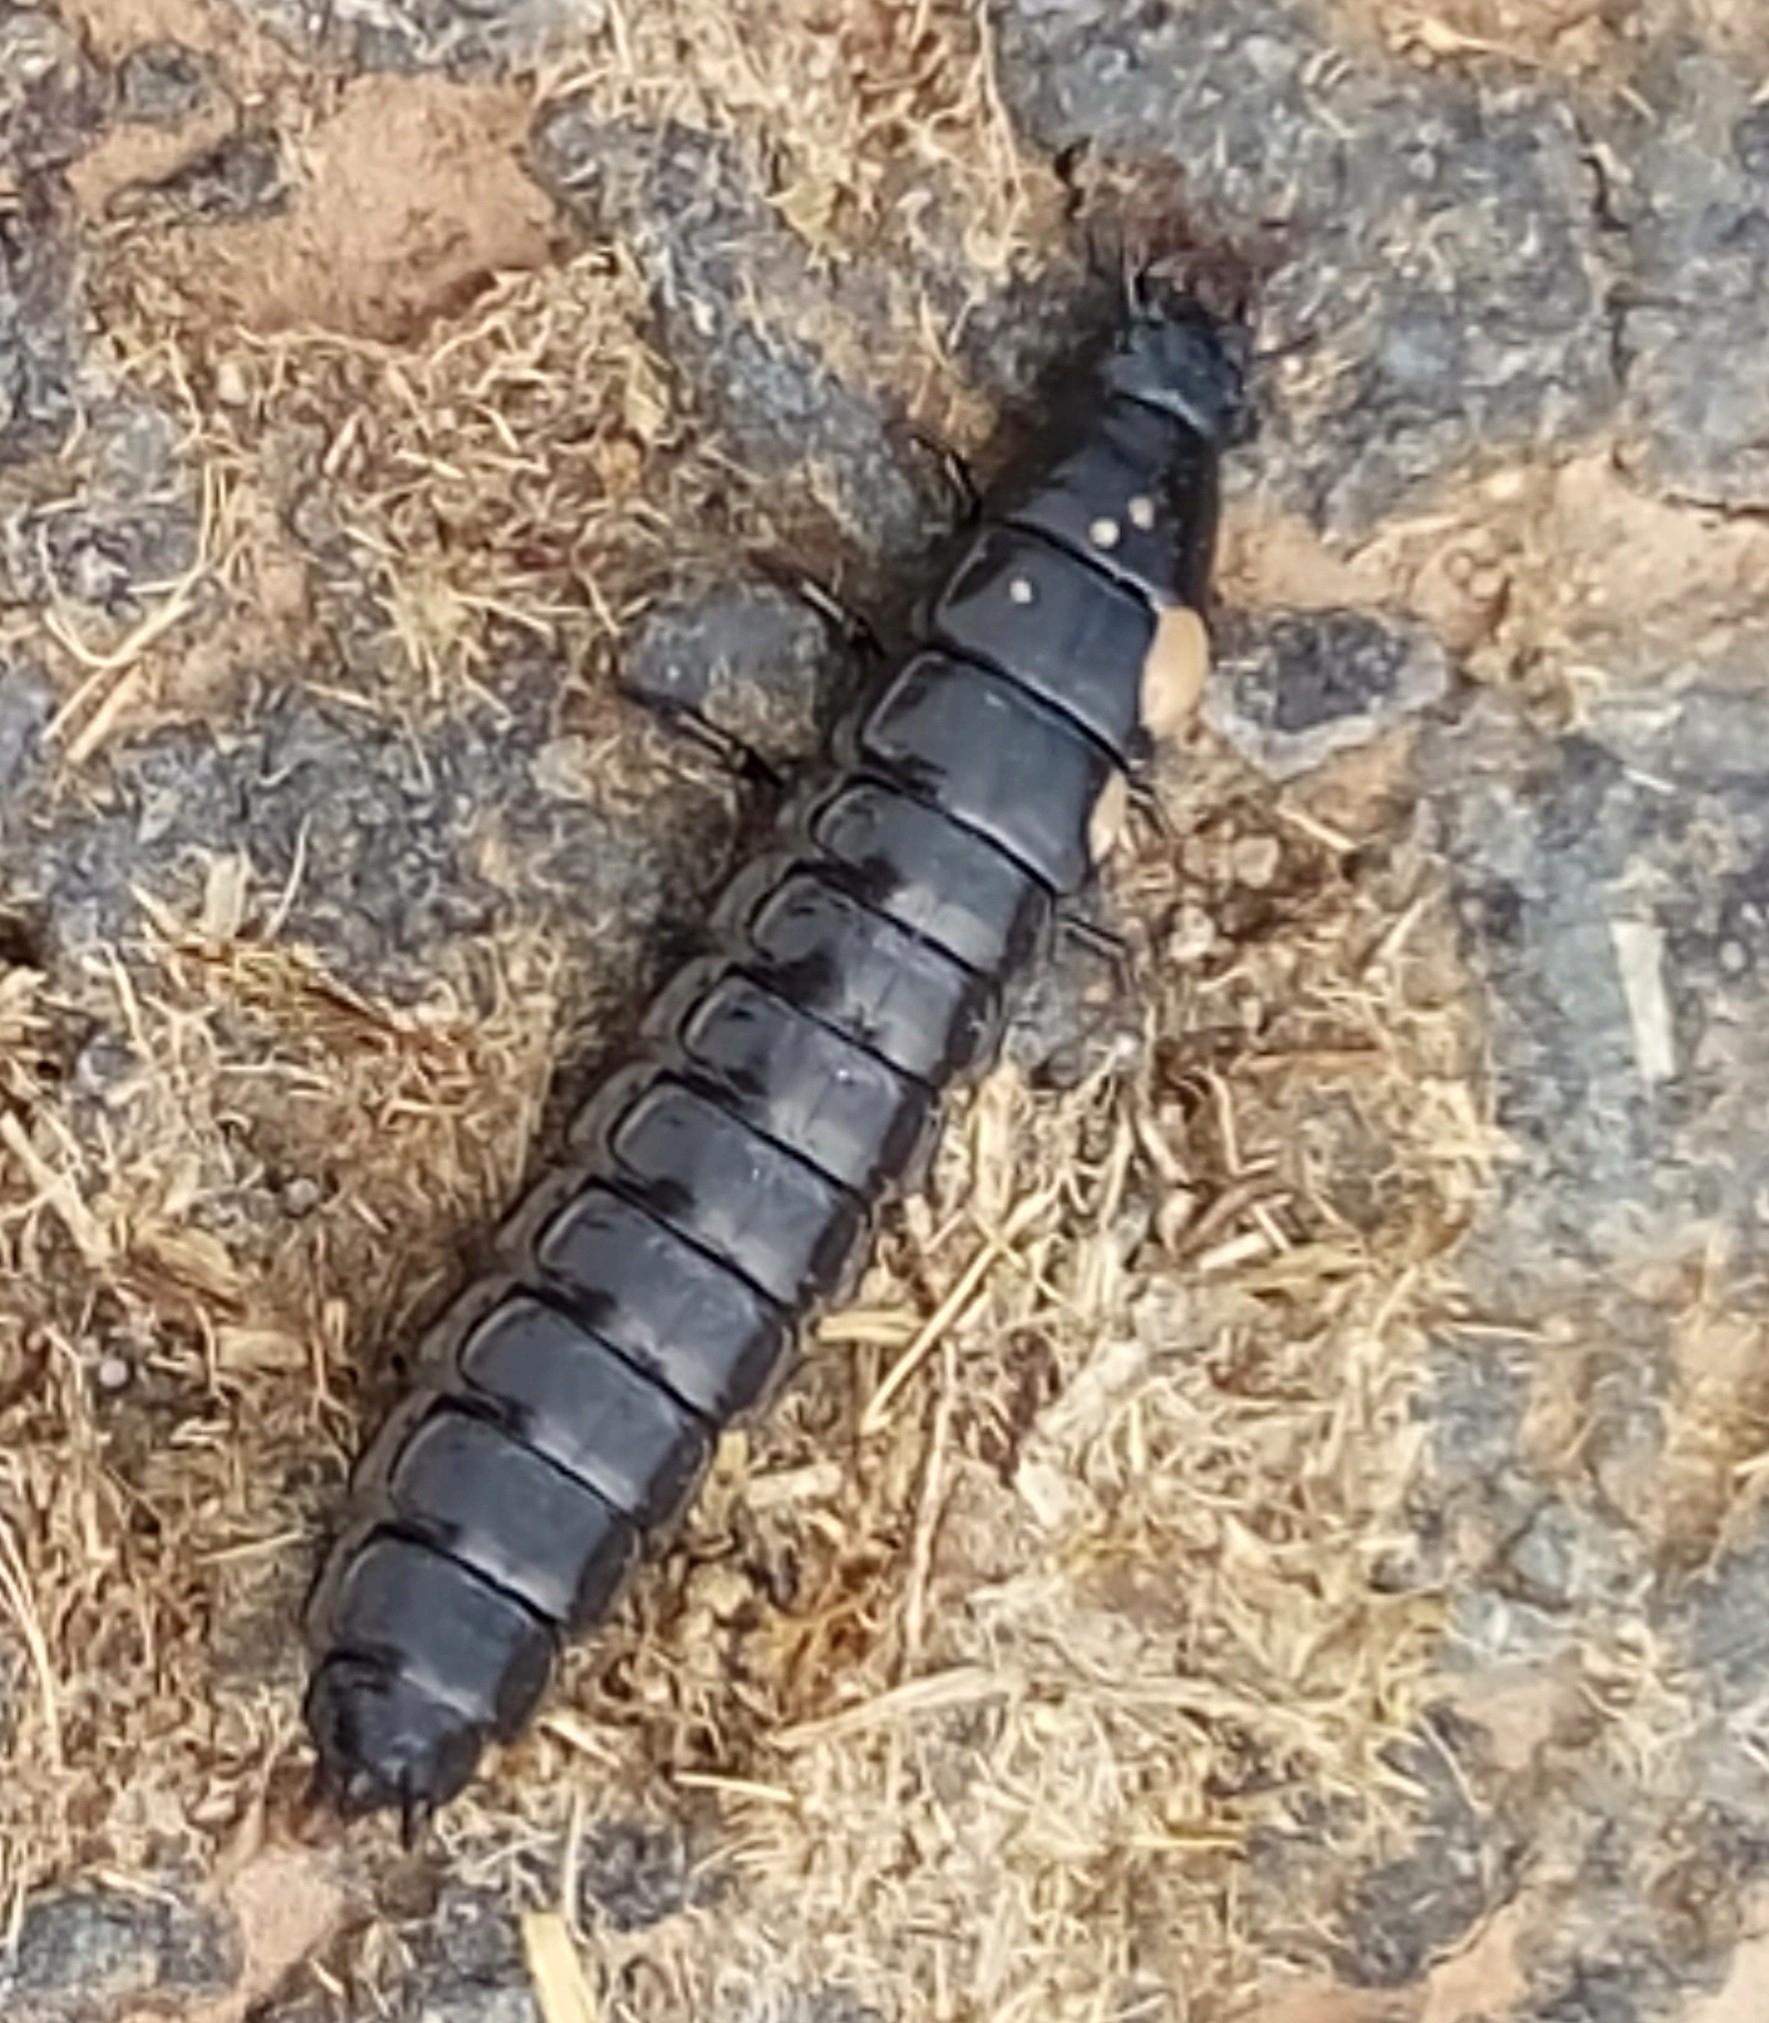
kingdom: Animalia
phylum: Arthropoda
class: Insecta
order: Coleoptera
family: Carabidae
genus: Carabus
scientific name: Carabus
